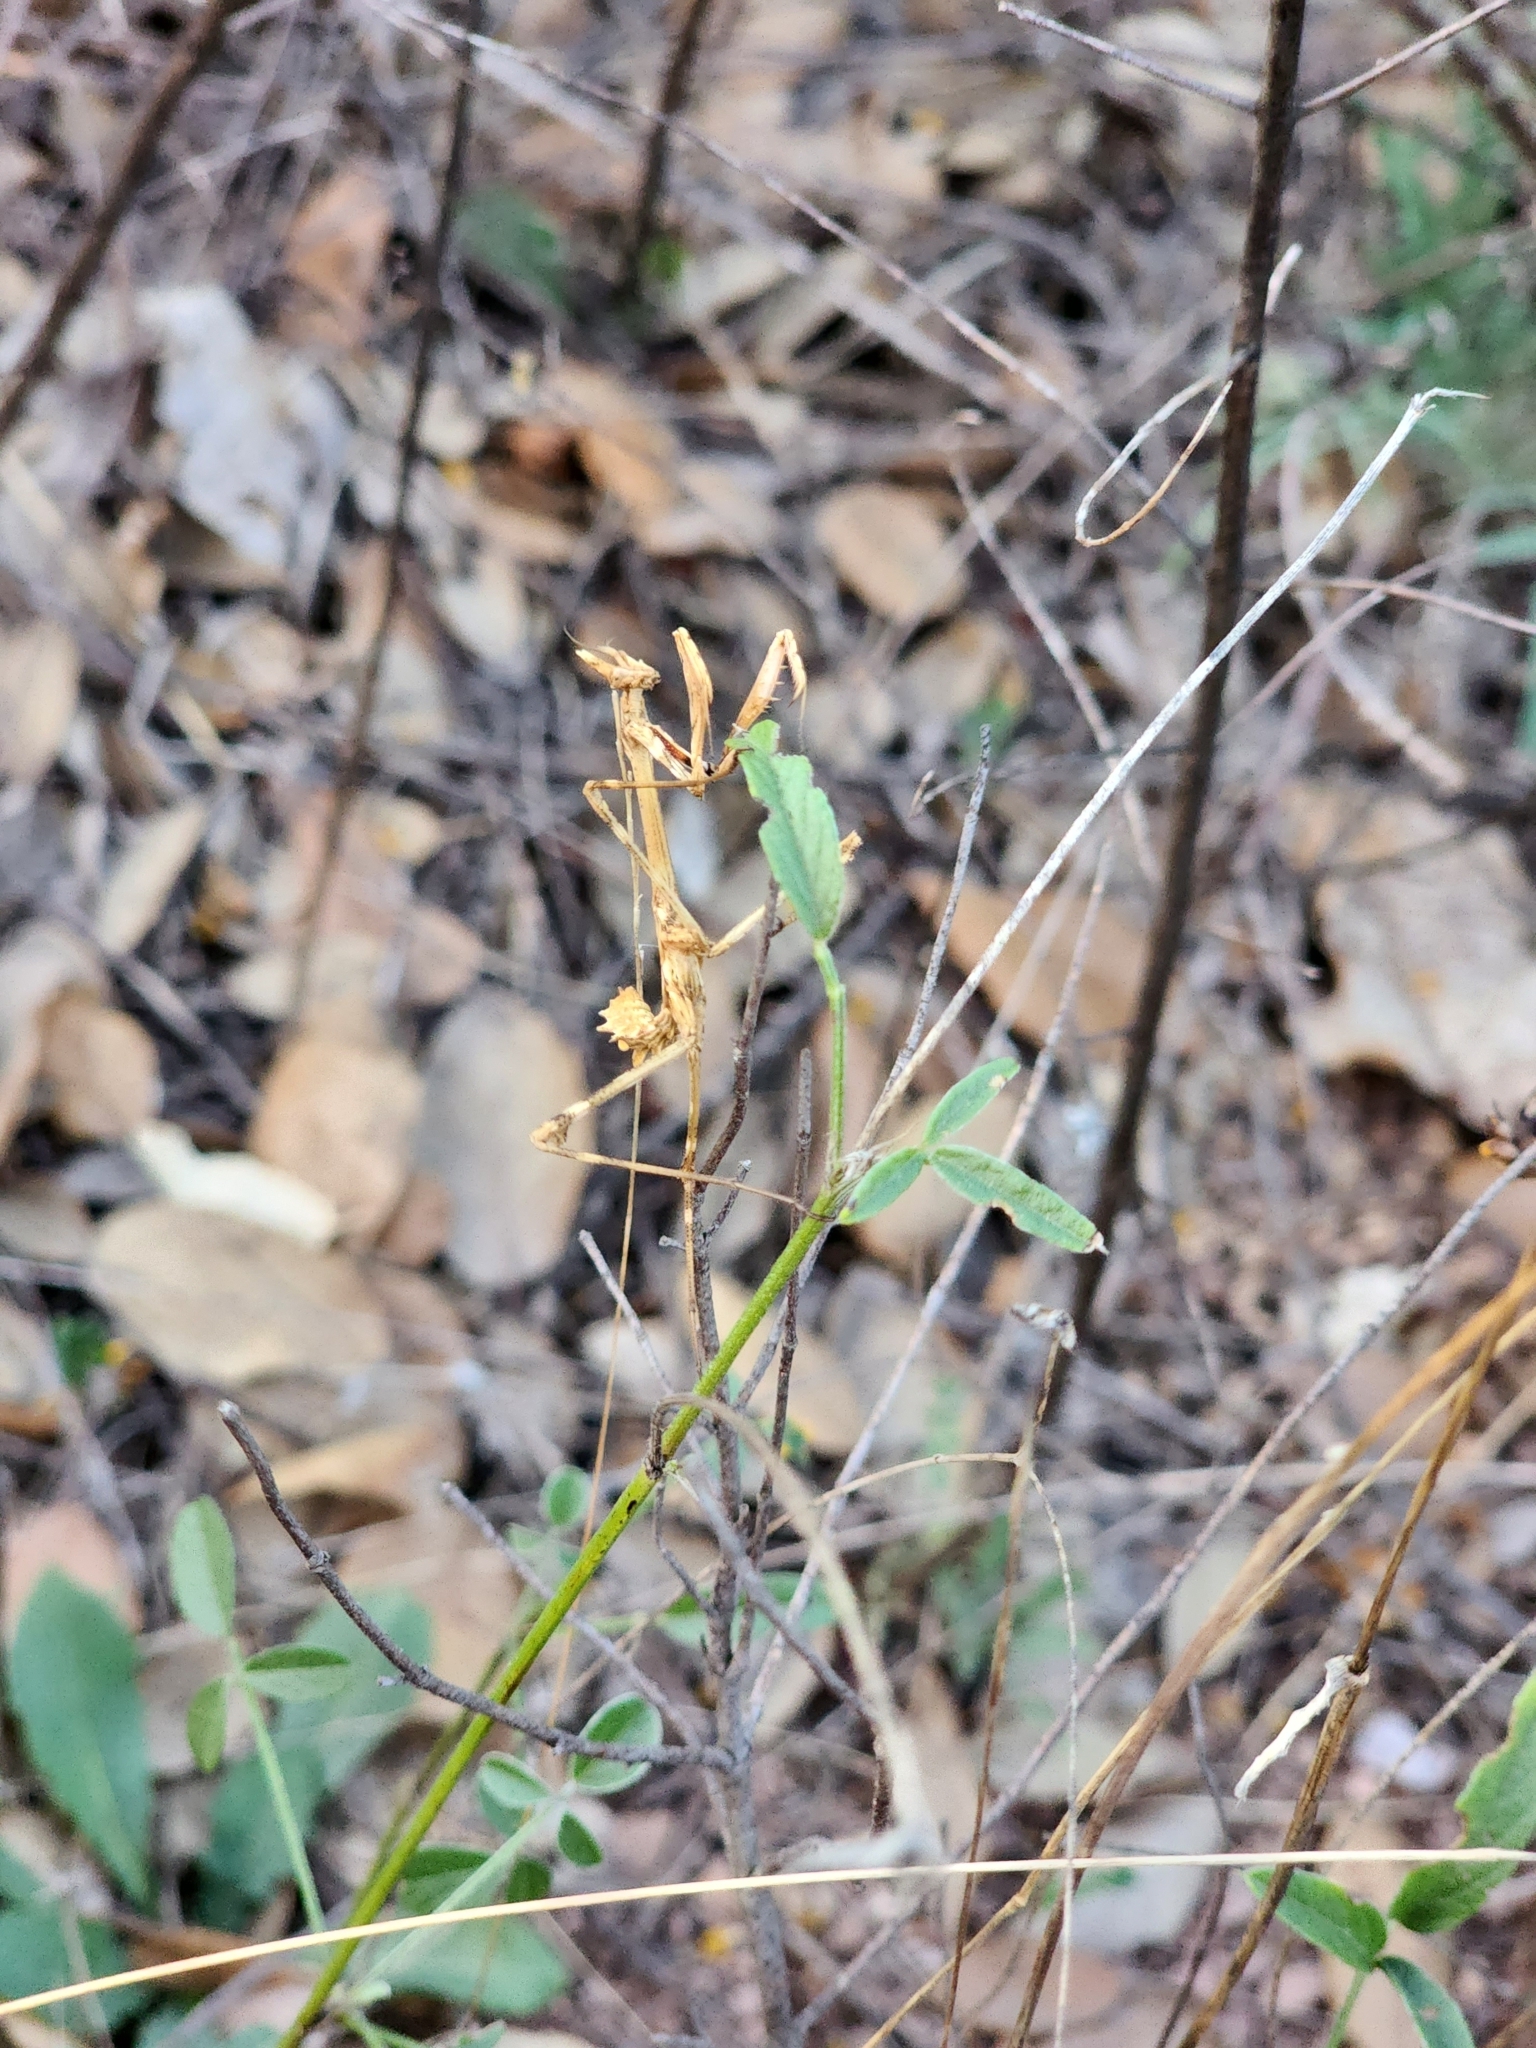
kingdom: Animalia
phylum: Arthropoda
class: Insecta
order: Mantodea
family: Empusidae
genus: Empusa
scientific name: Empusa pennata
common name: Conehead mantis
